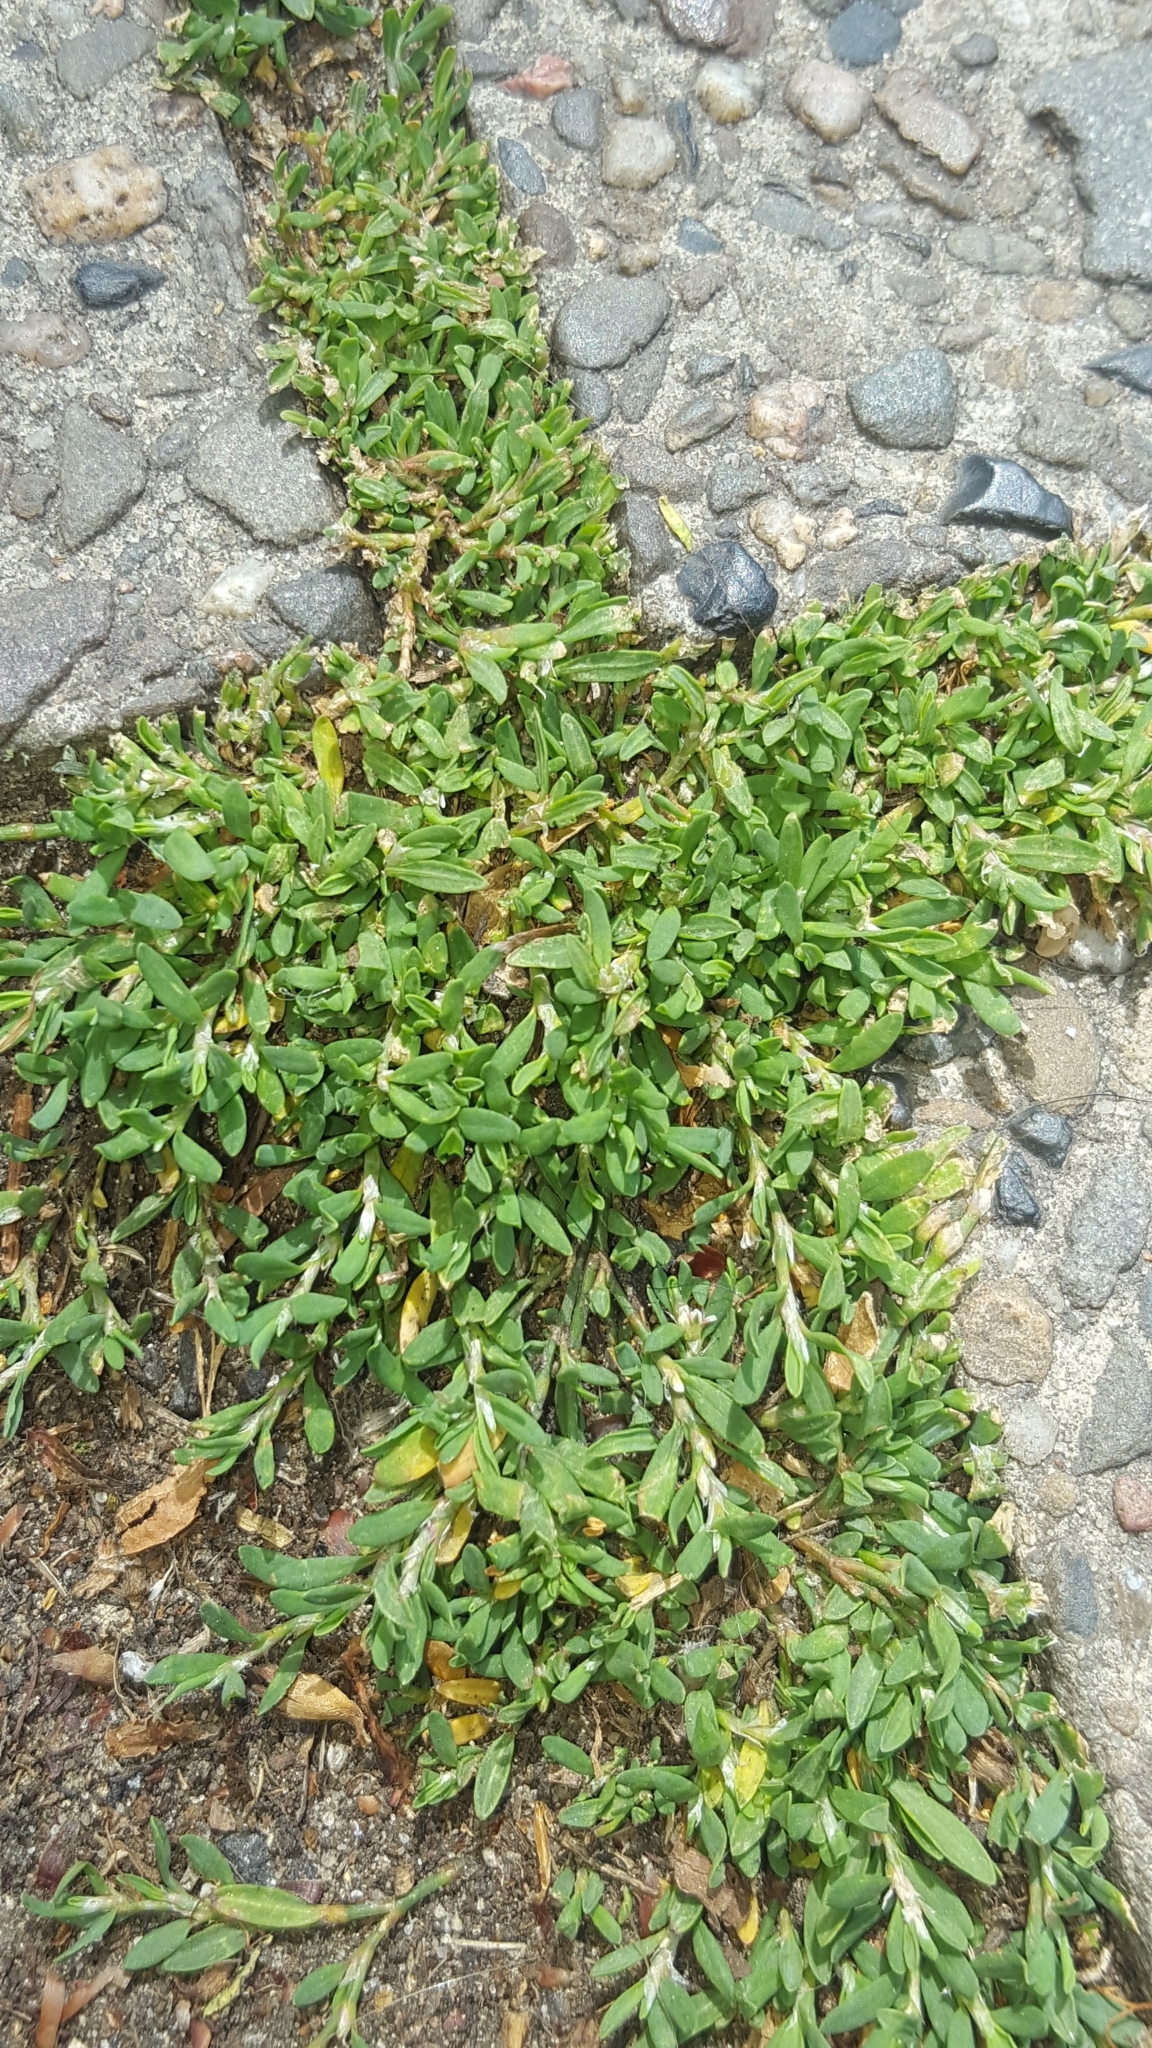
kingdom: Plantae
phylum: Tracheophyta
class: Magnoliopsida
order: Caryophyllales
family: Polygonaceae
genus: Polygonum
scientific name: Polygonum arenastrum
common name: Equal-leaved knotgrass
